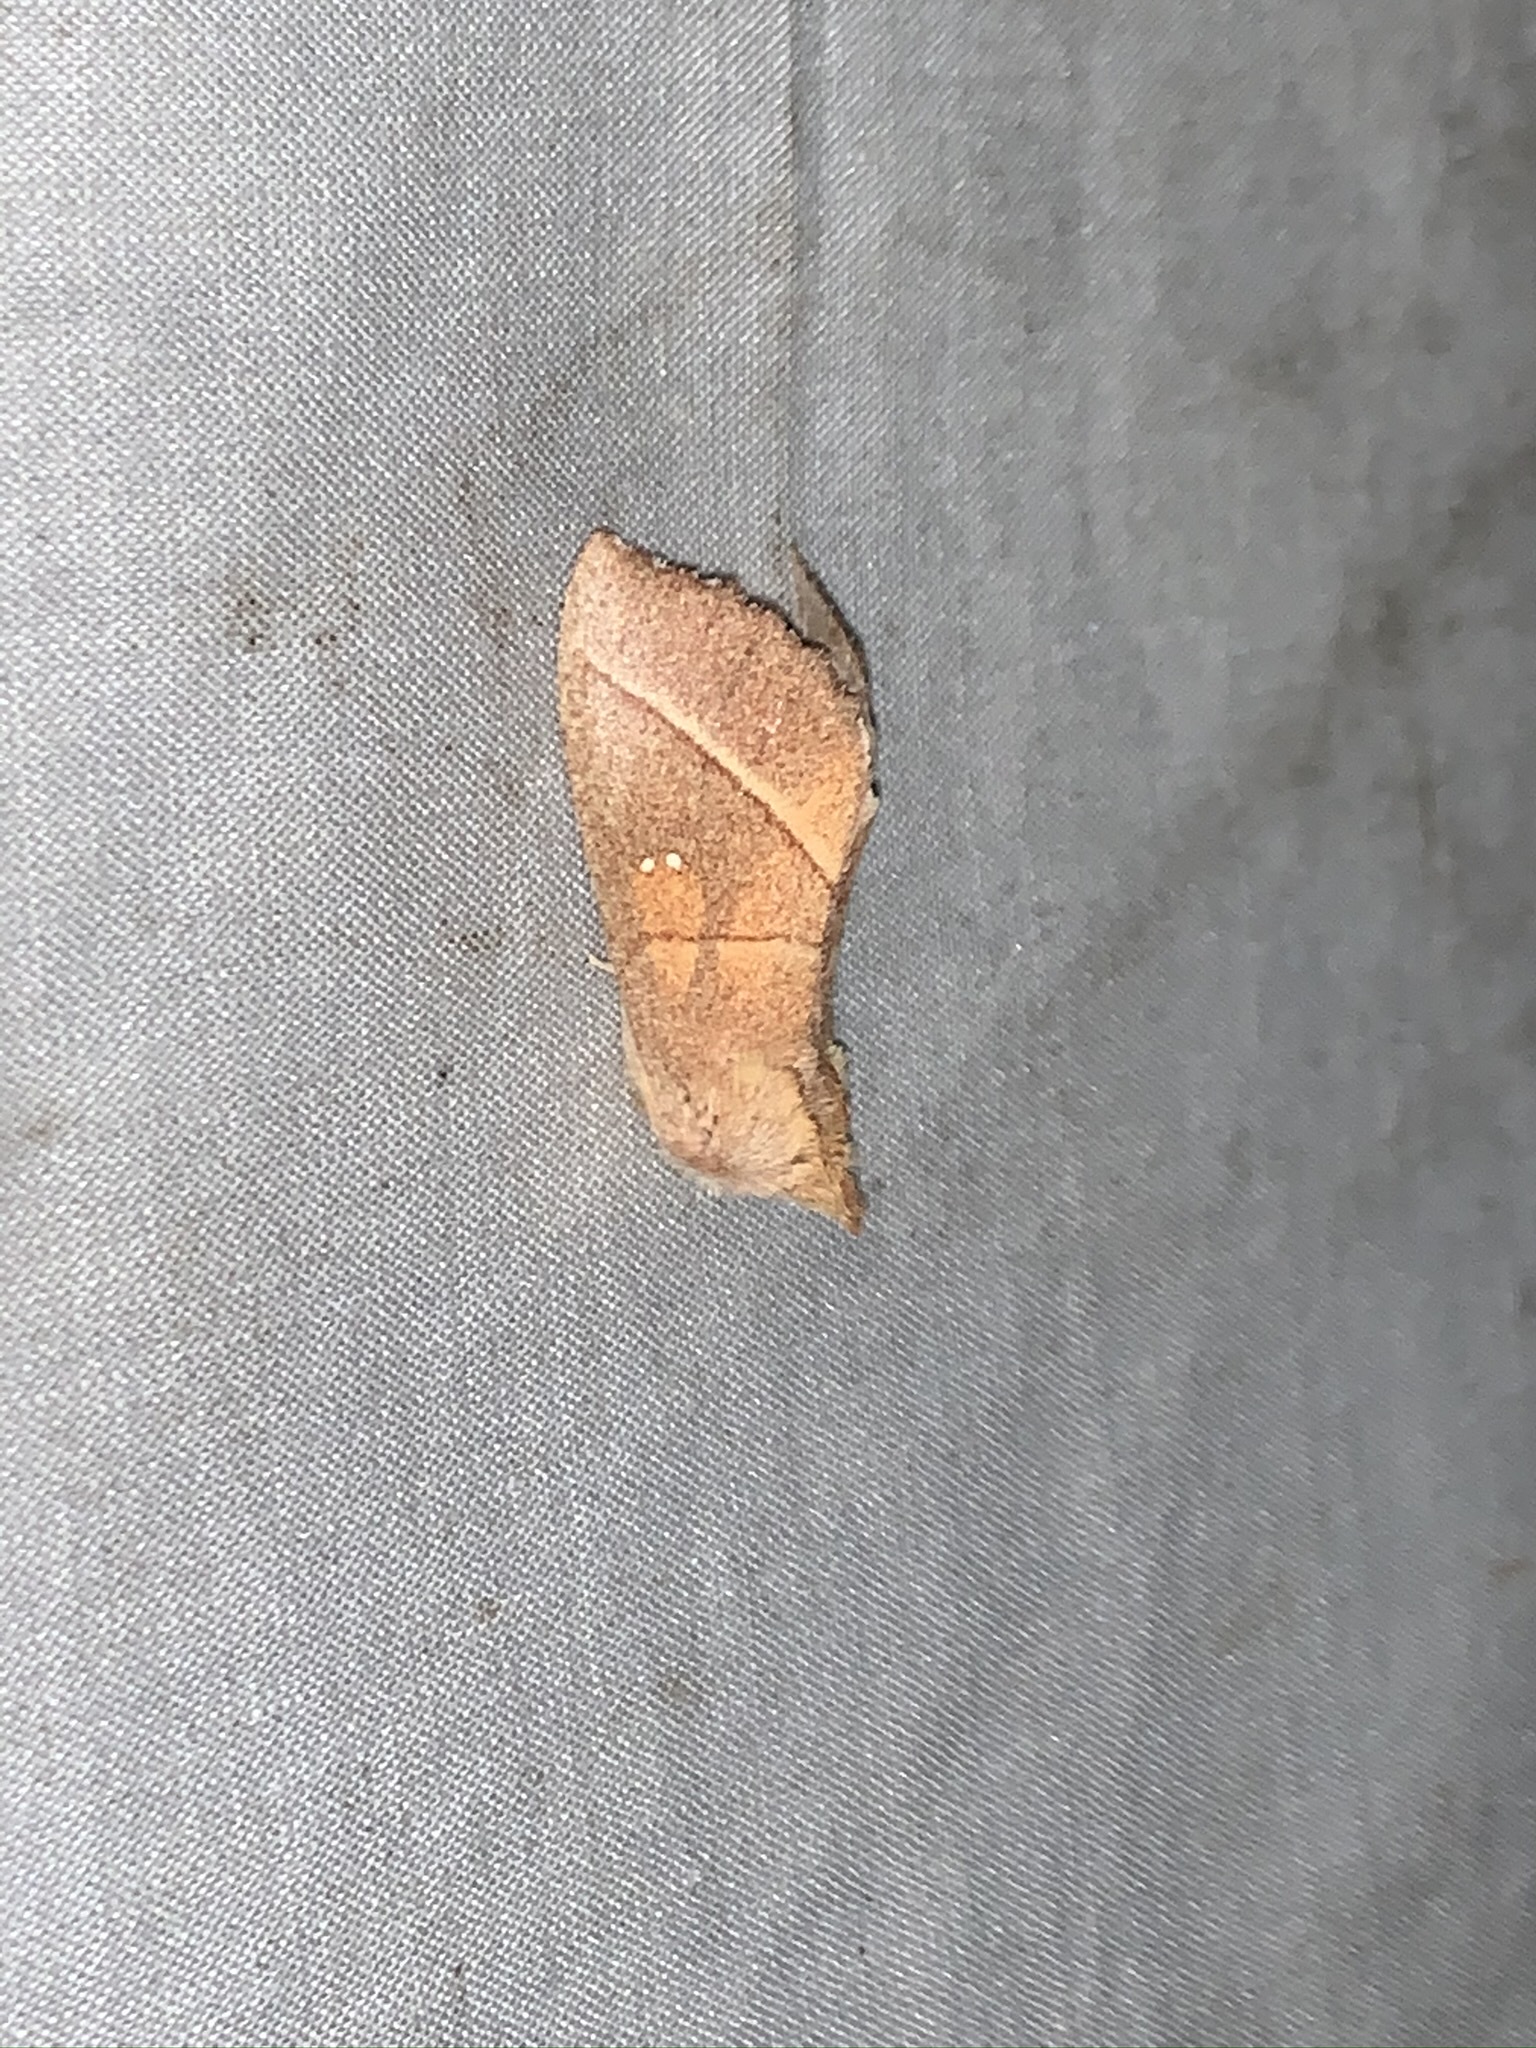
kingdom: Animalia
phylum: Arthropoda
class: Insecta
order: Lepidoptera
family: Notodontidae
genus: Nadata
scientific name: Nadata gibbosa
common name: White-dotted prominent
